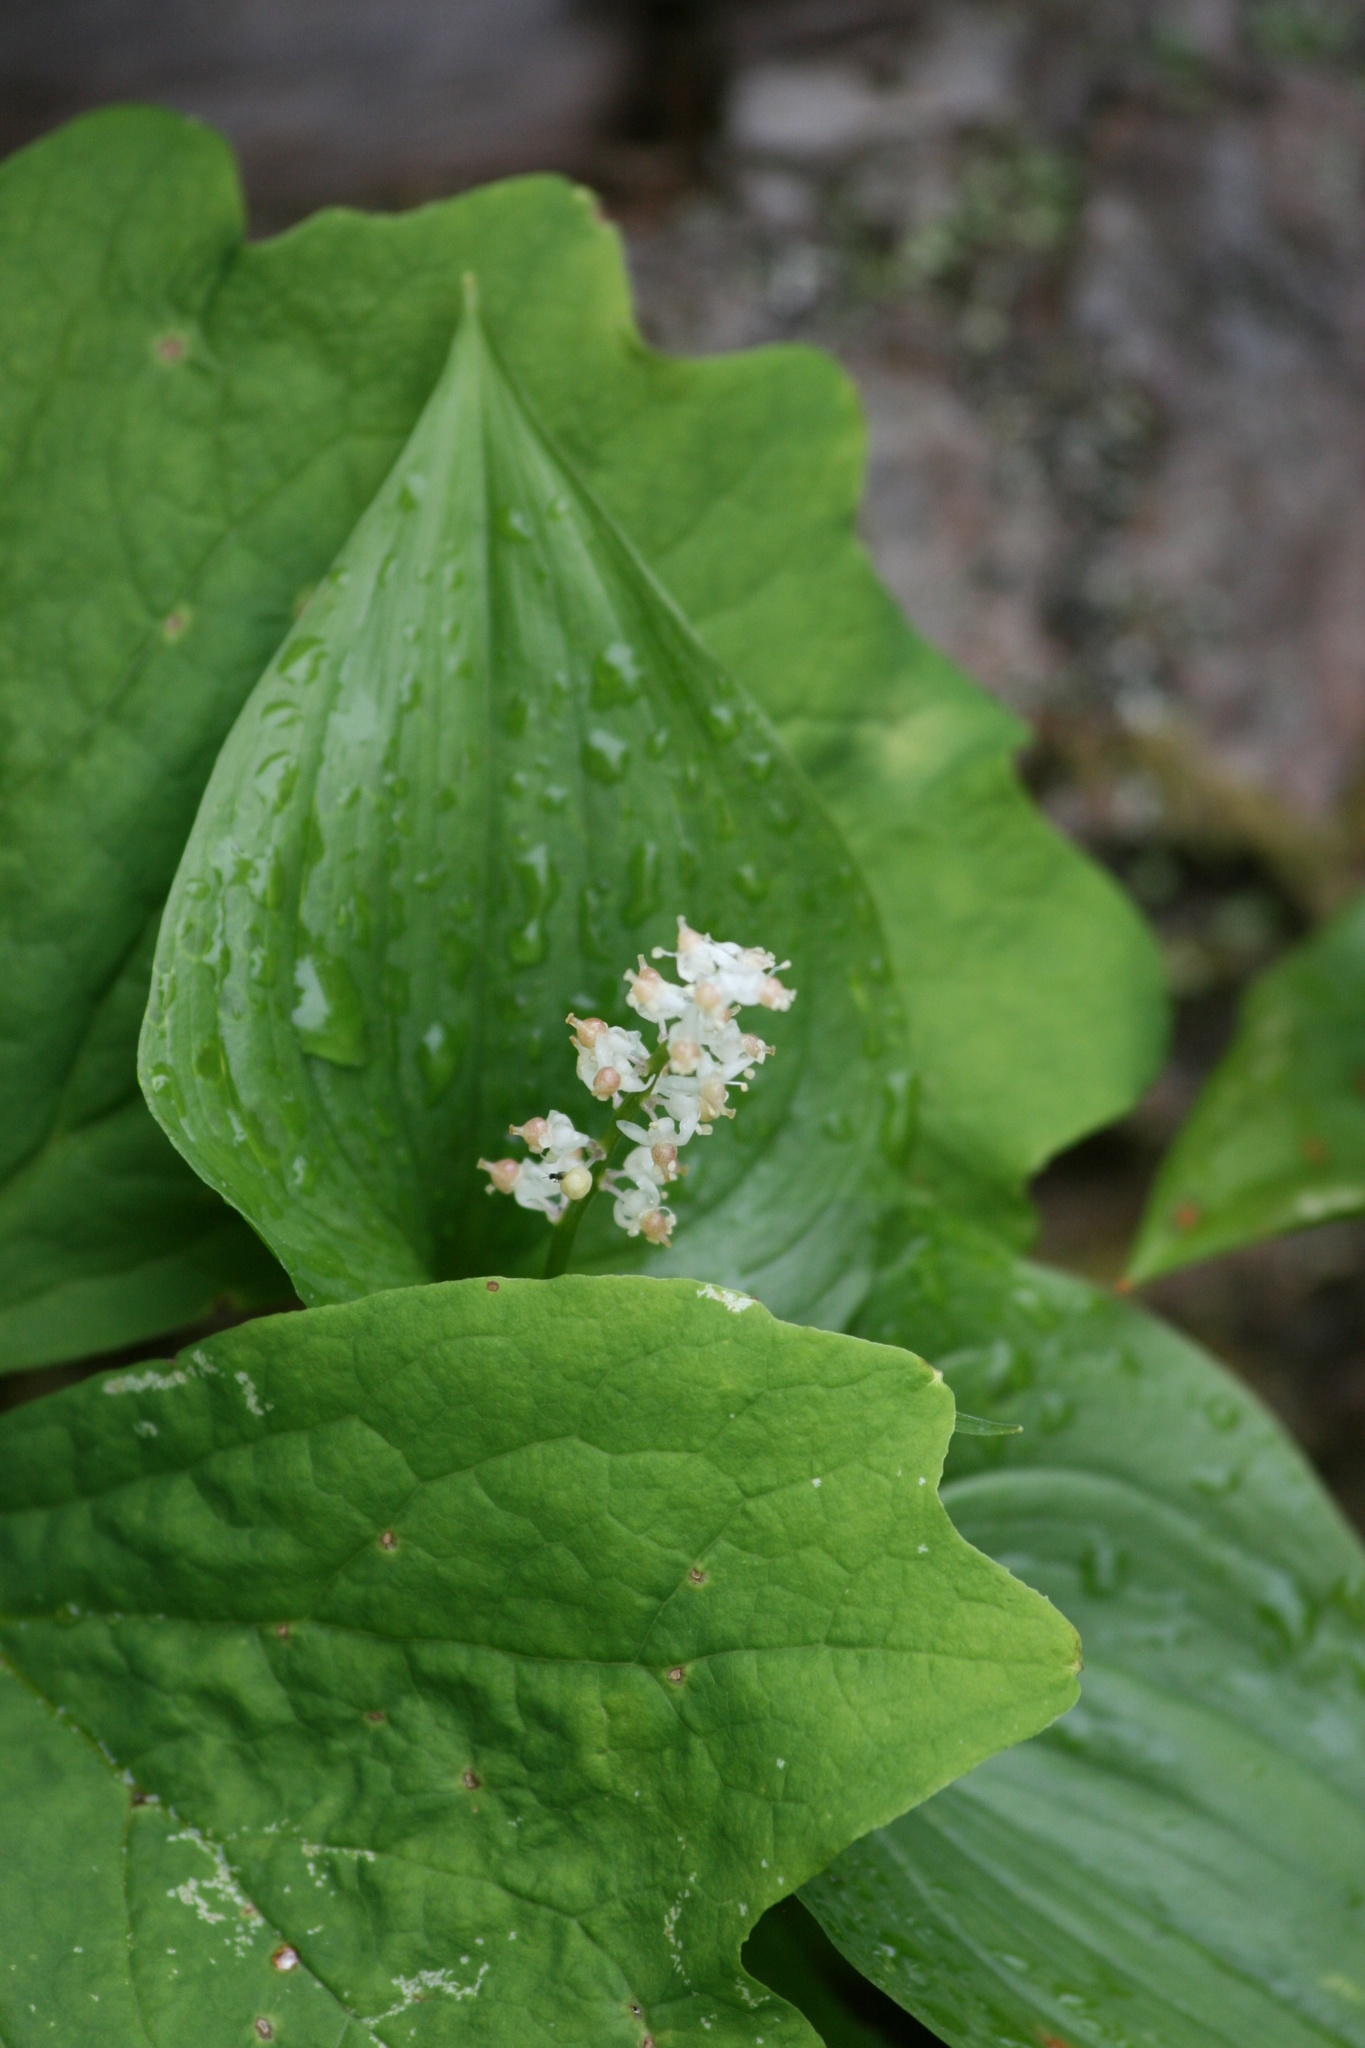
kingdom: Plantae
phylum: Tracheophyta
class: Liliopsida
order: Asparagales
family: Asparagaceae
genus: Maianthemum
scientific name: Maianthemum dilatatum
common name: False lily-of-the-valley
